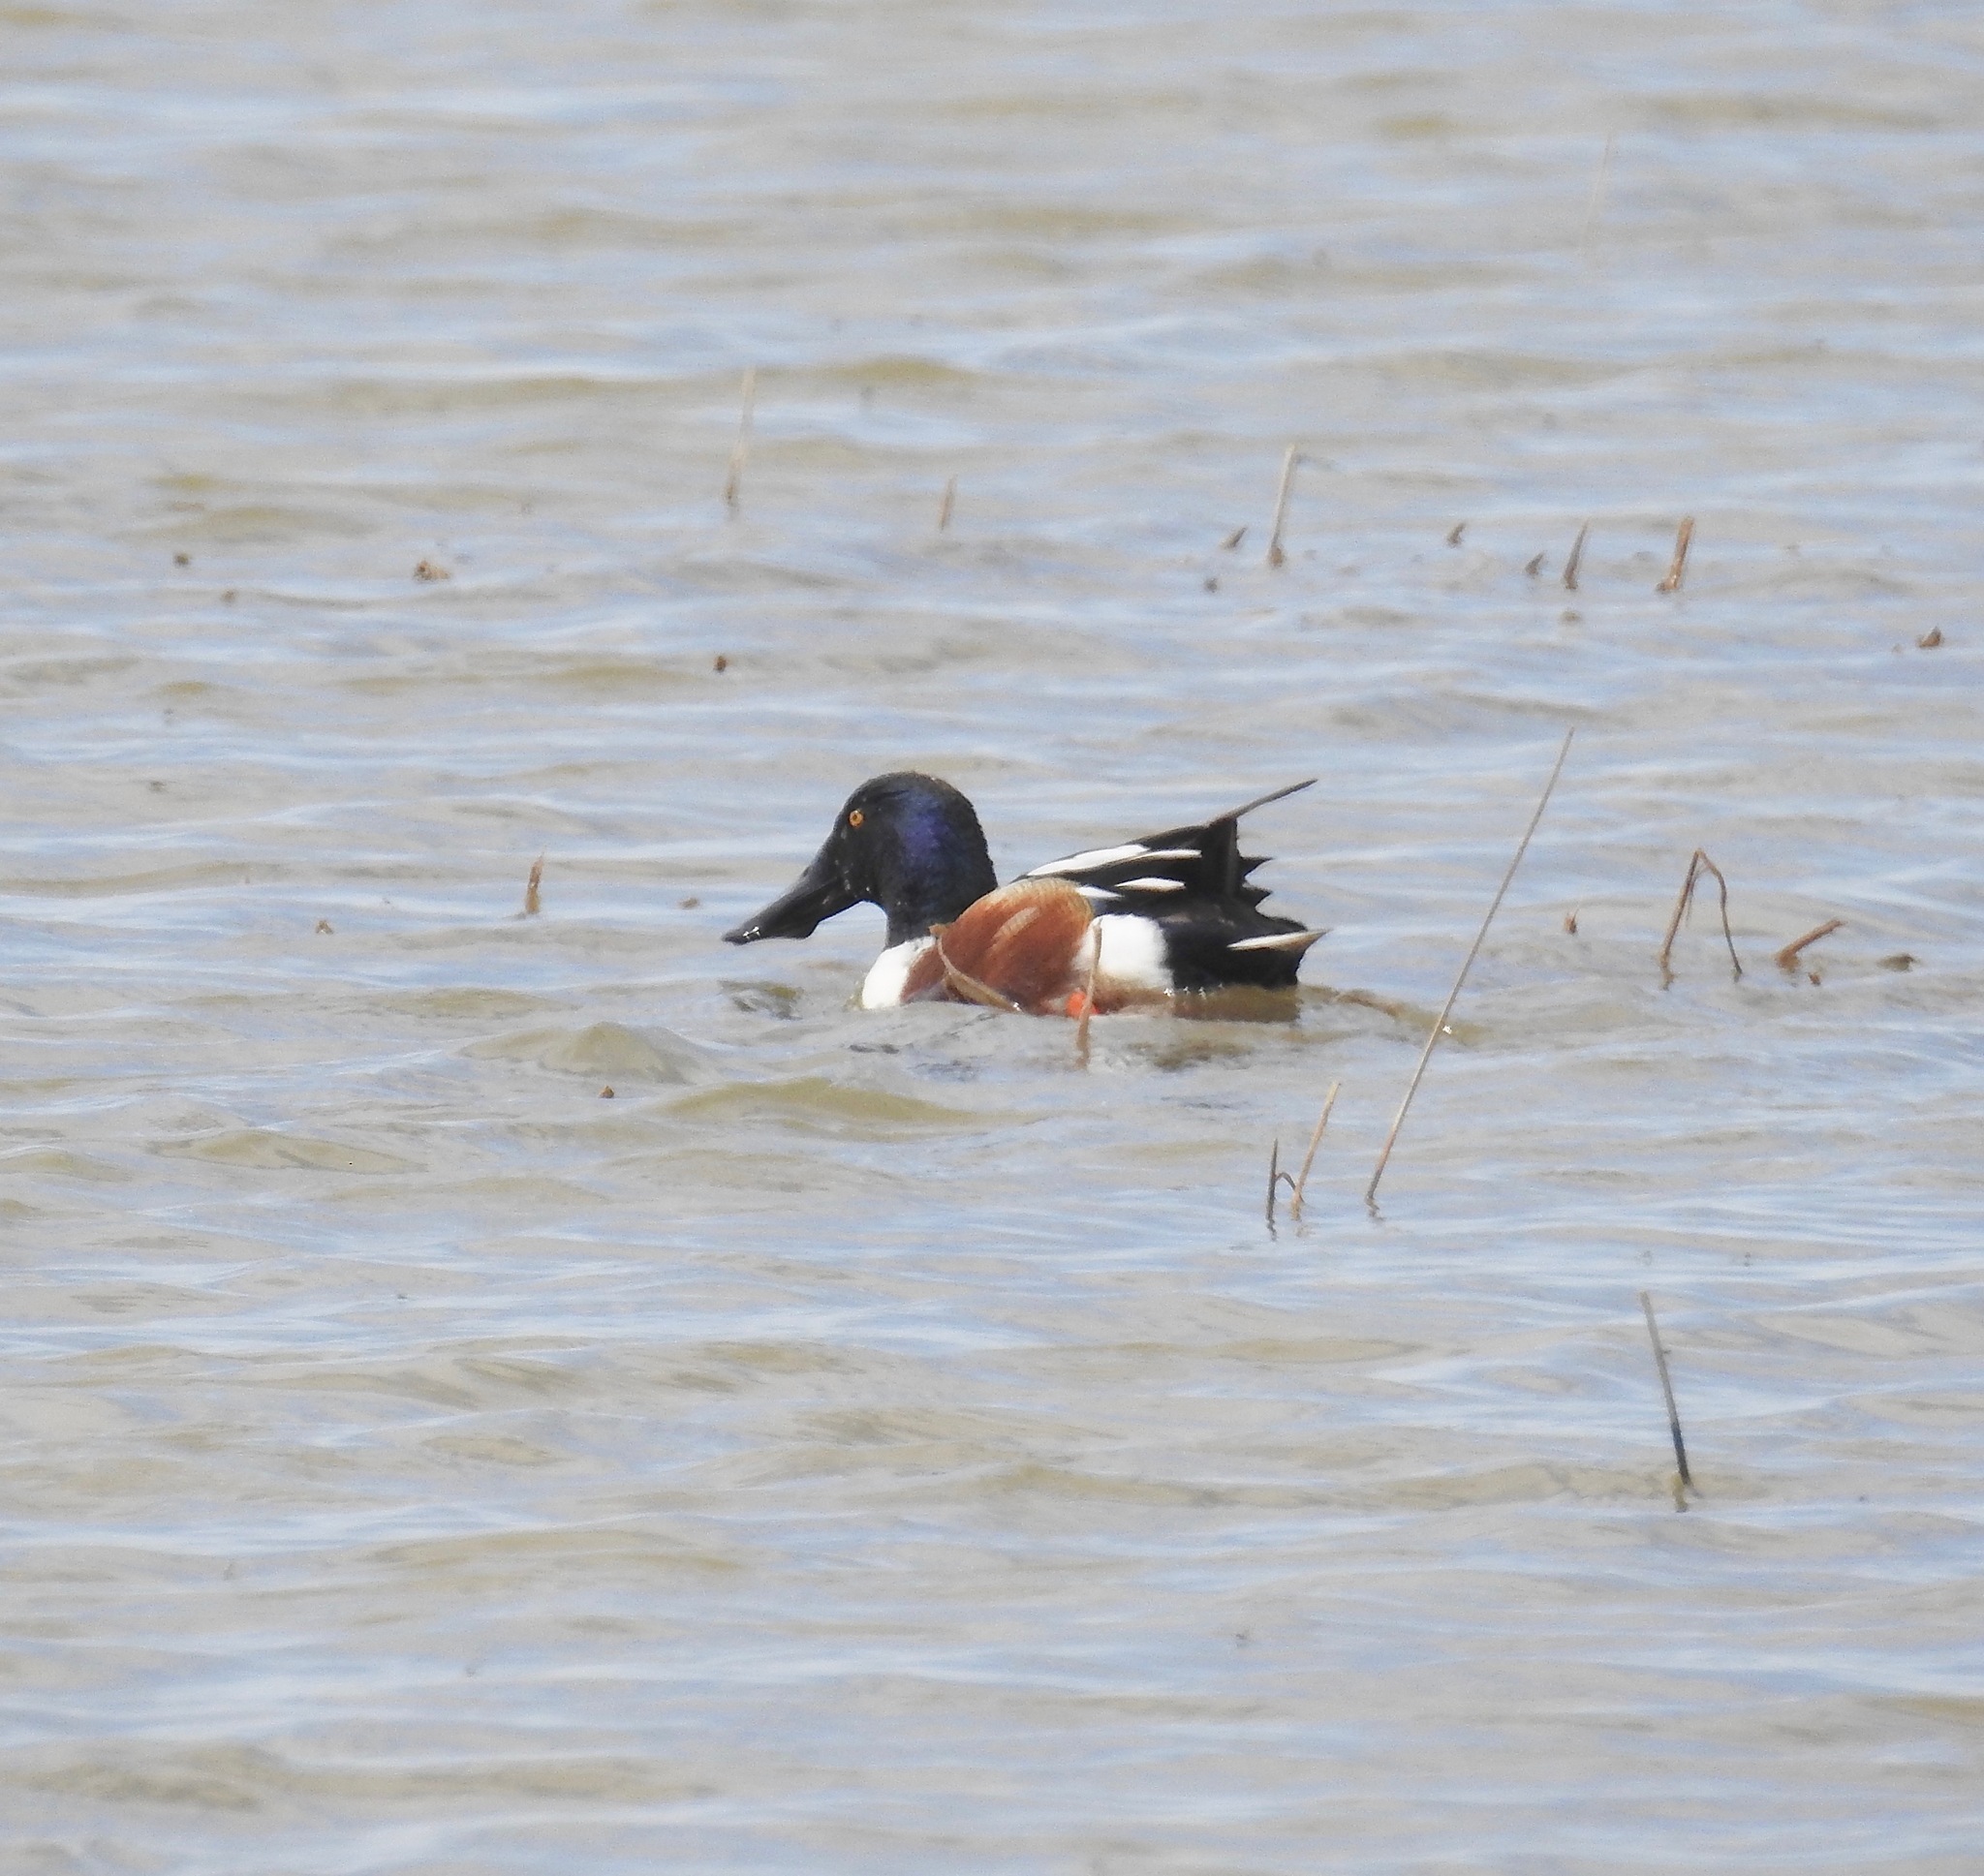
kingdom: Animalia
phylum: Chordata
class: Aves
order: Anseriformes
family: Anatidae
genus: Spatula
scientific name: Spatula clypeata
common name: Northern shoveler
